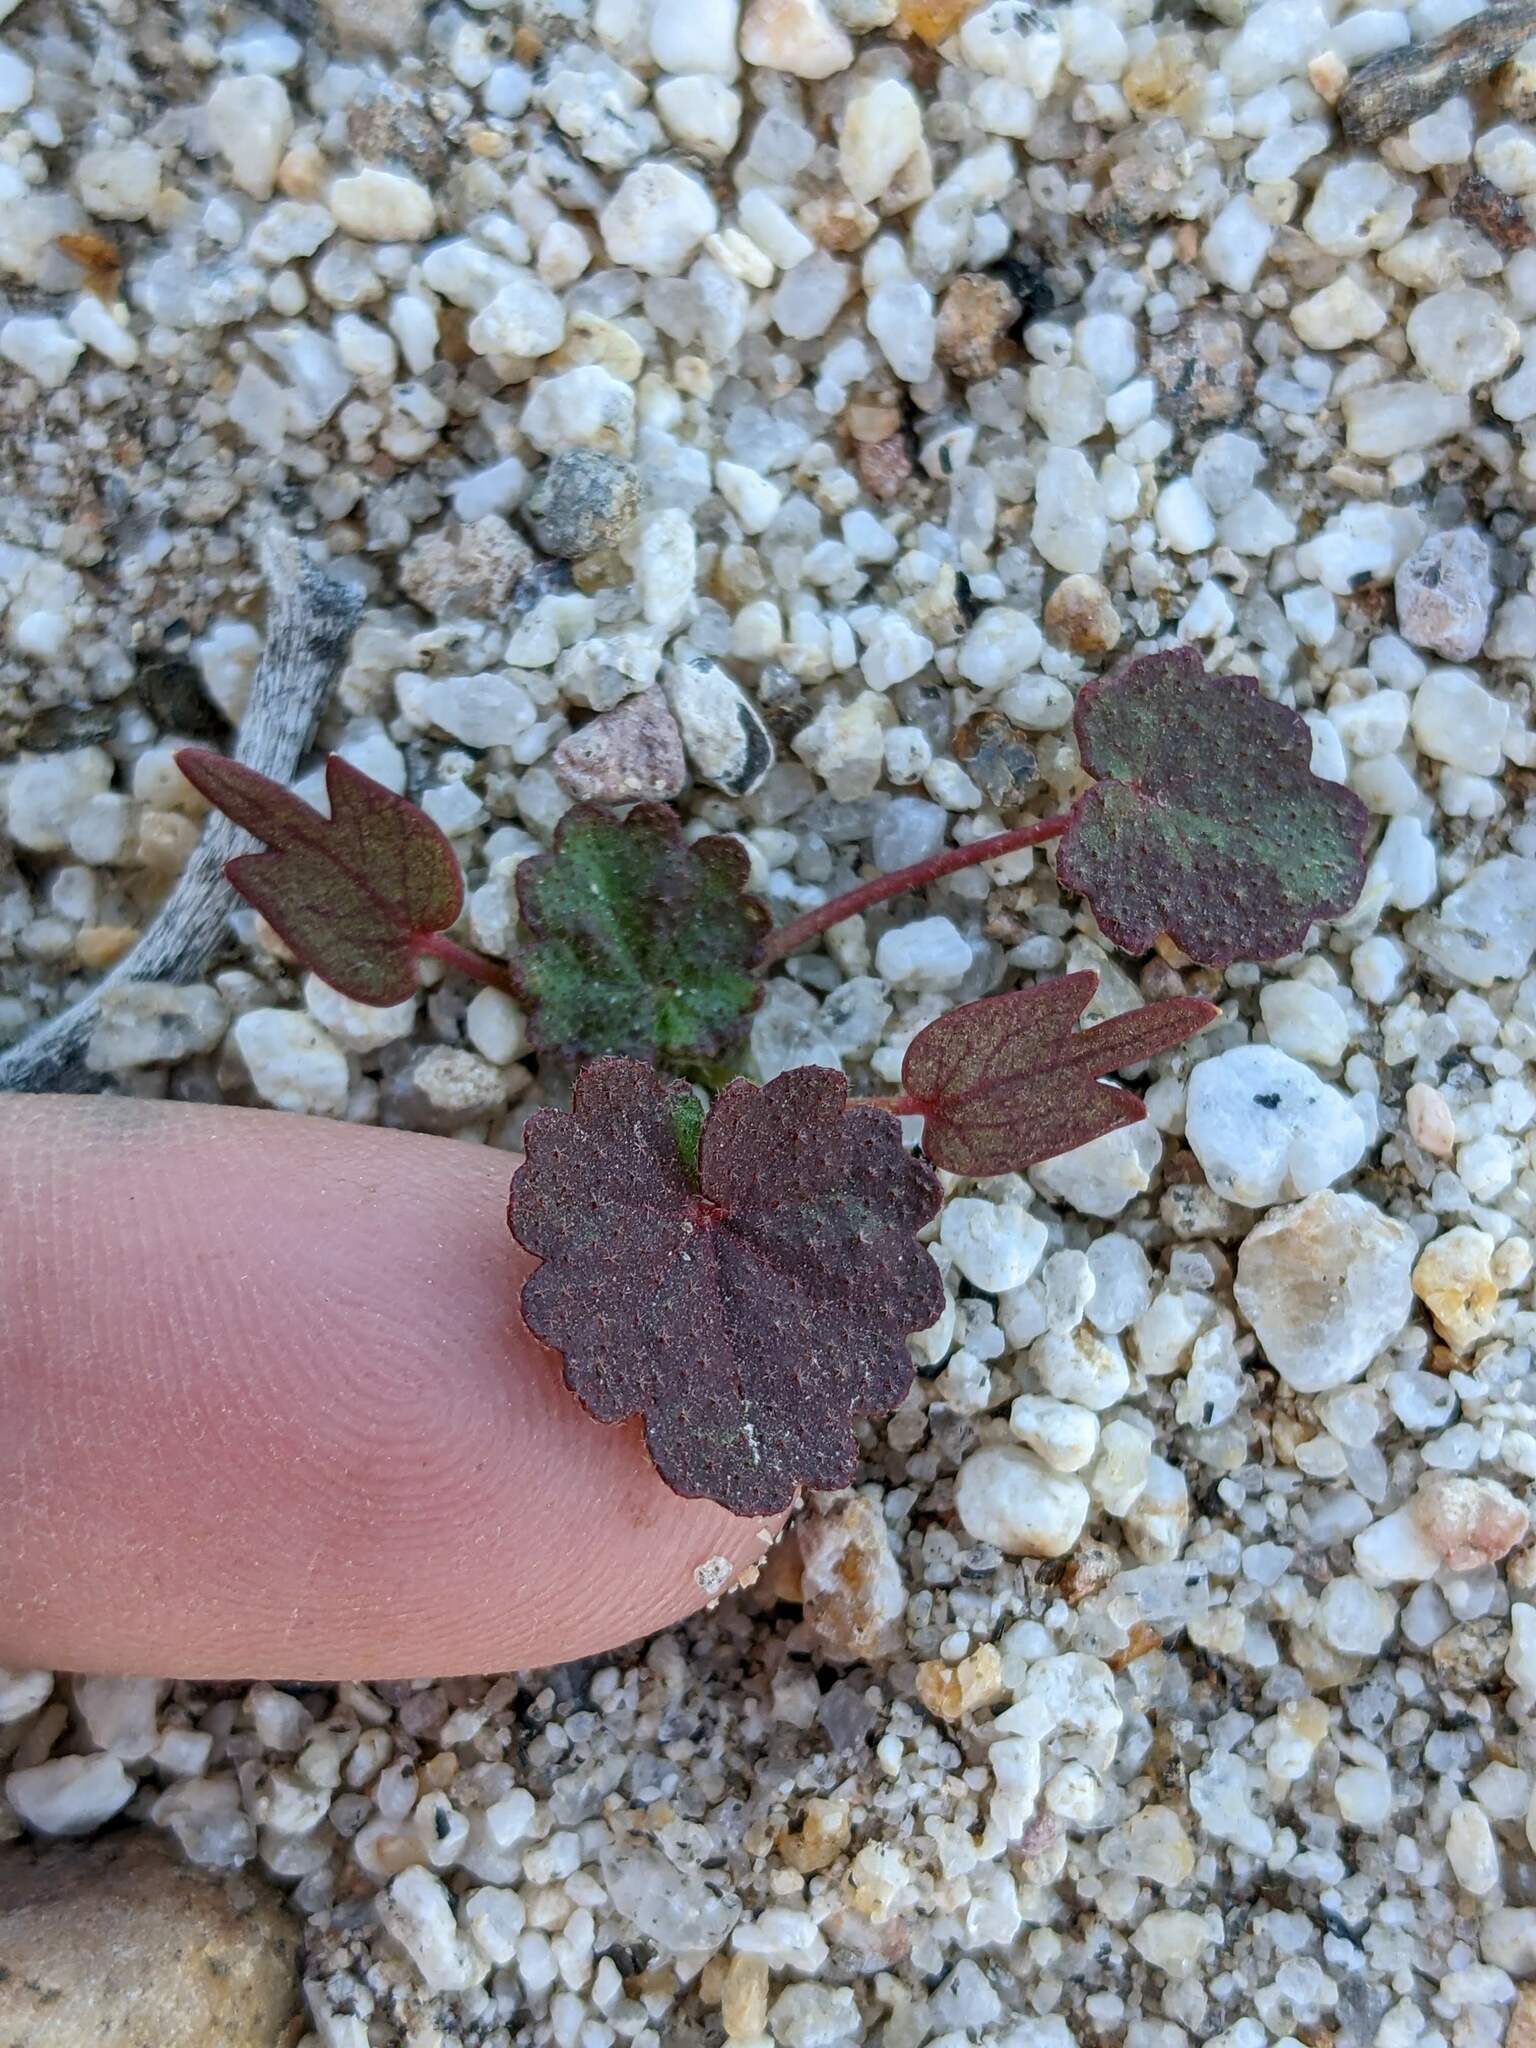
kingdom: Plantae
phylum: Tracheophyta
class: Magnoliopsida
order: Malvales
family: Malvaceae
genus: Eremalche
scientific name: Eremalche rotundifolia
